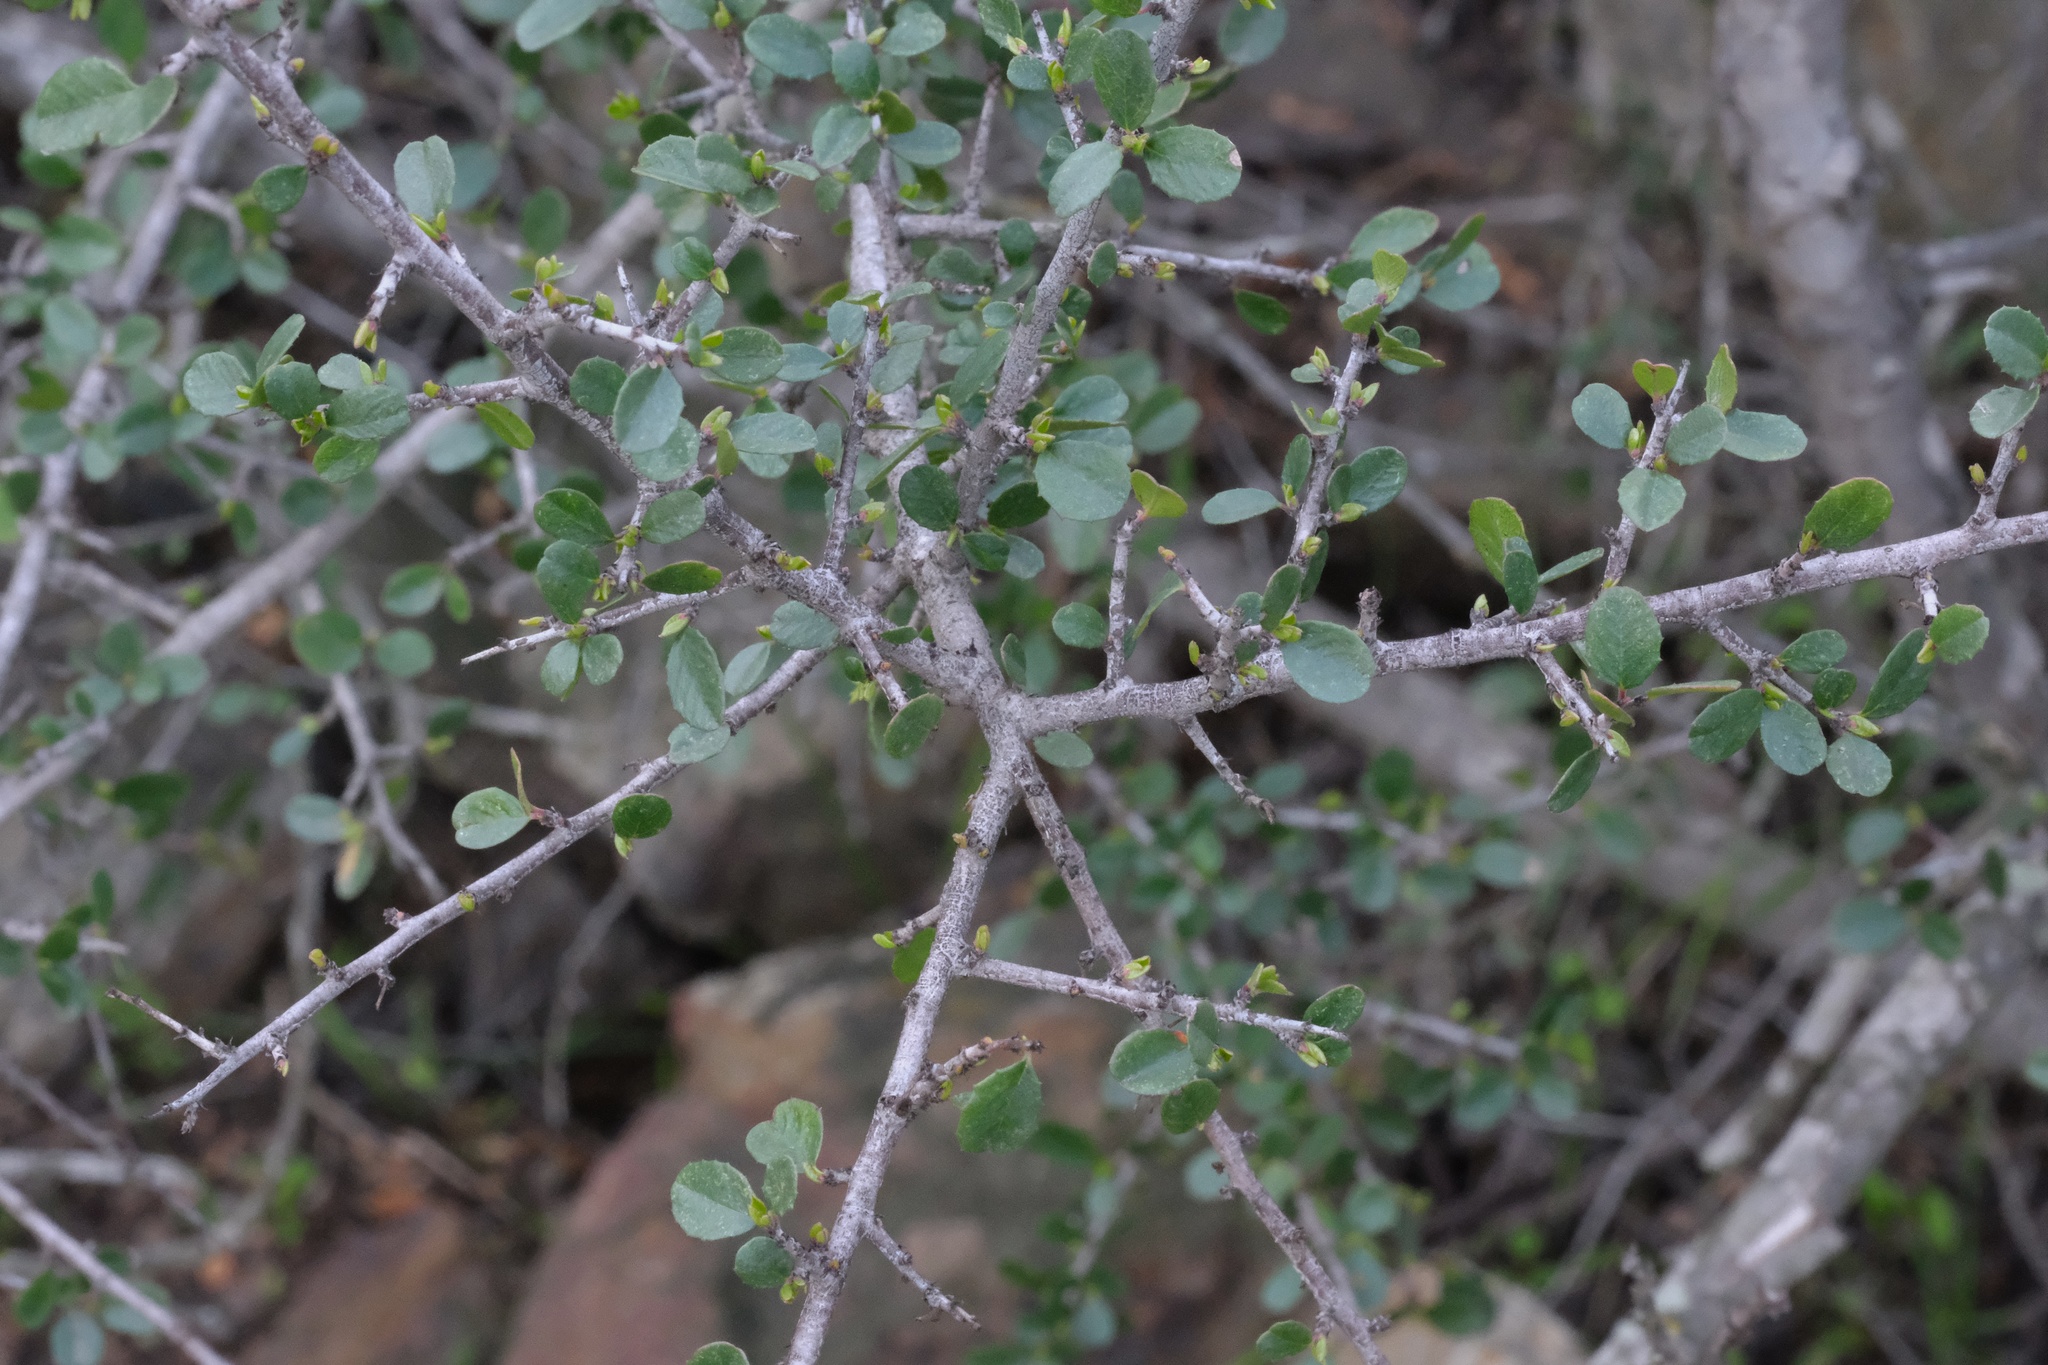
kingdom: Plantae
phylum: Tracheophyta
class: Magnoliopsida
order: Rosales
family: Rhamnaceae
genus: Endotropis
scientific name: Endotropis crocea
